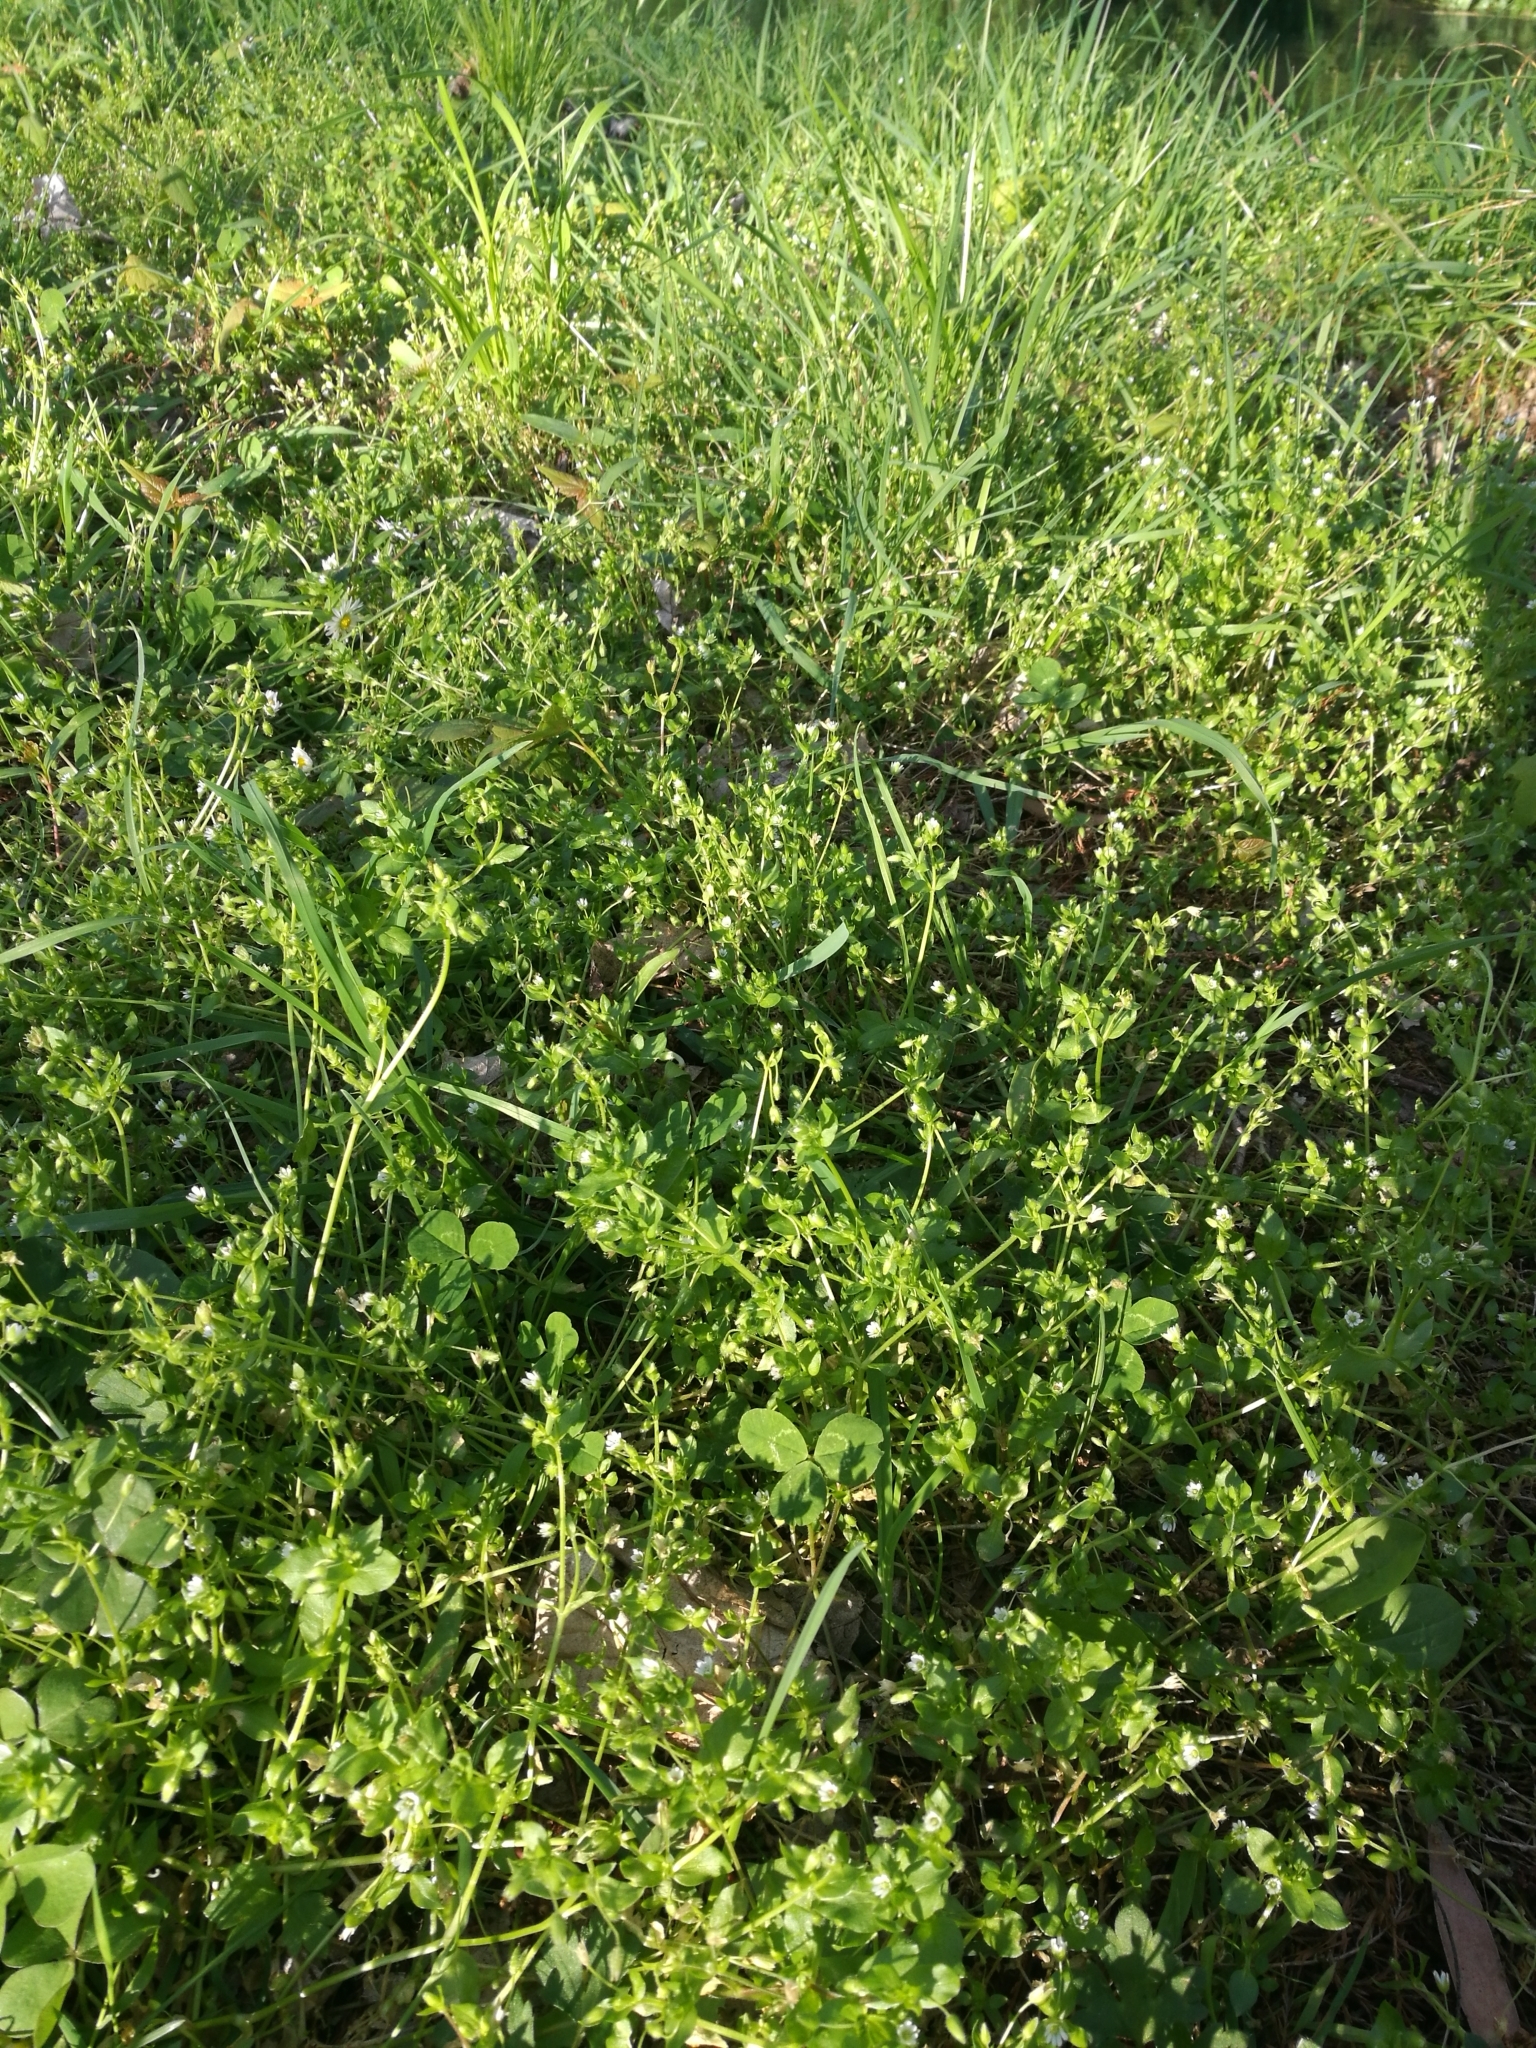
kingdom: Plantae
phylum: Tracheophyta
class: Magnoliopsida
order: Caryophyllales
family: Caryophyllaceae
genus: Stellaria
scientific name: Stellaria media
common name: Common chickweed
